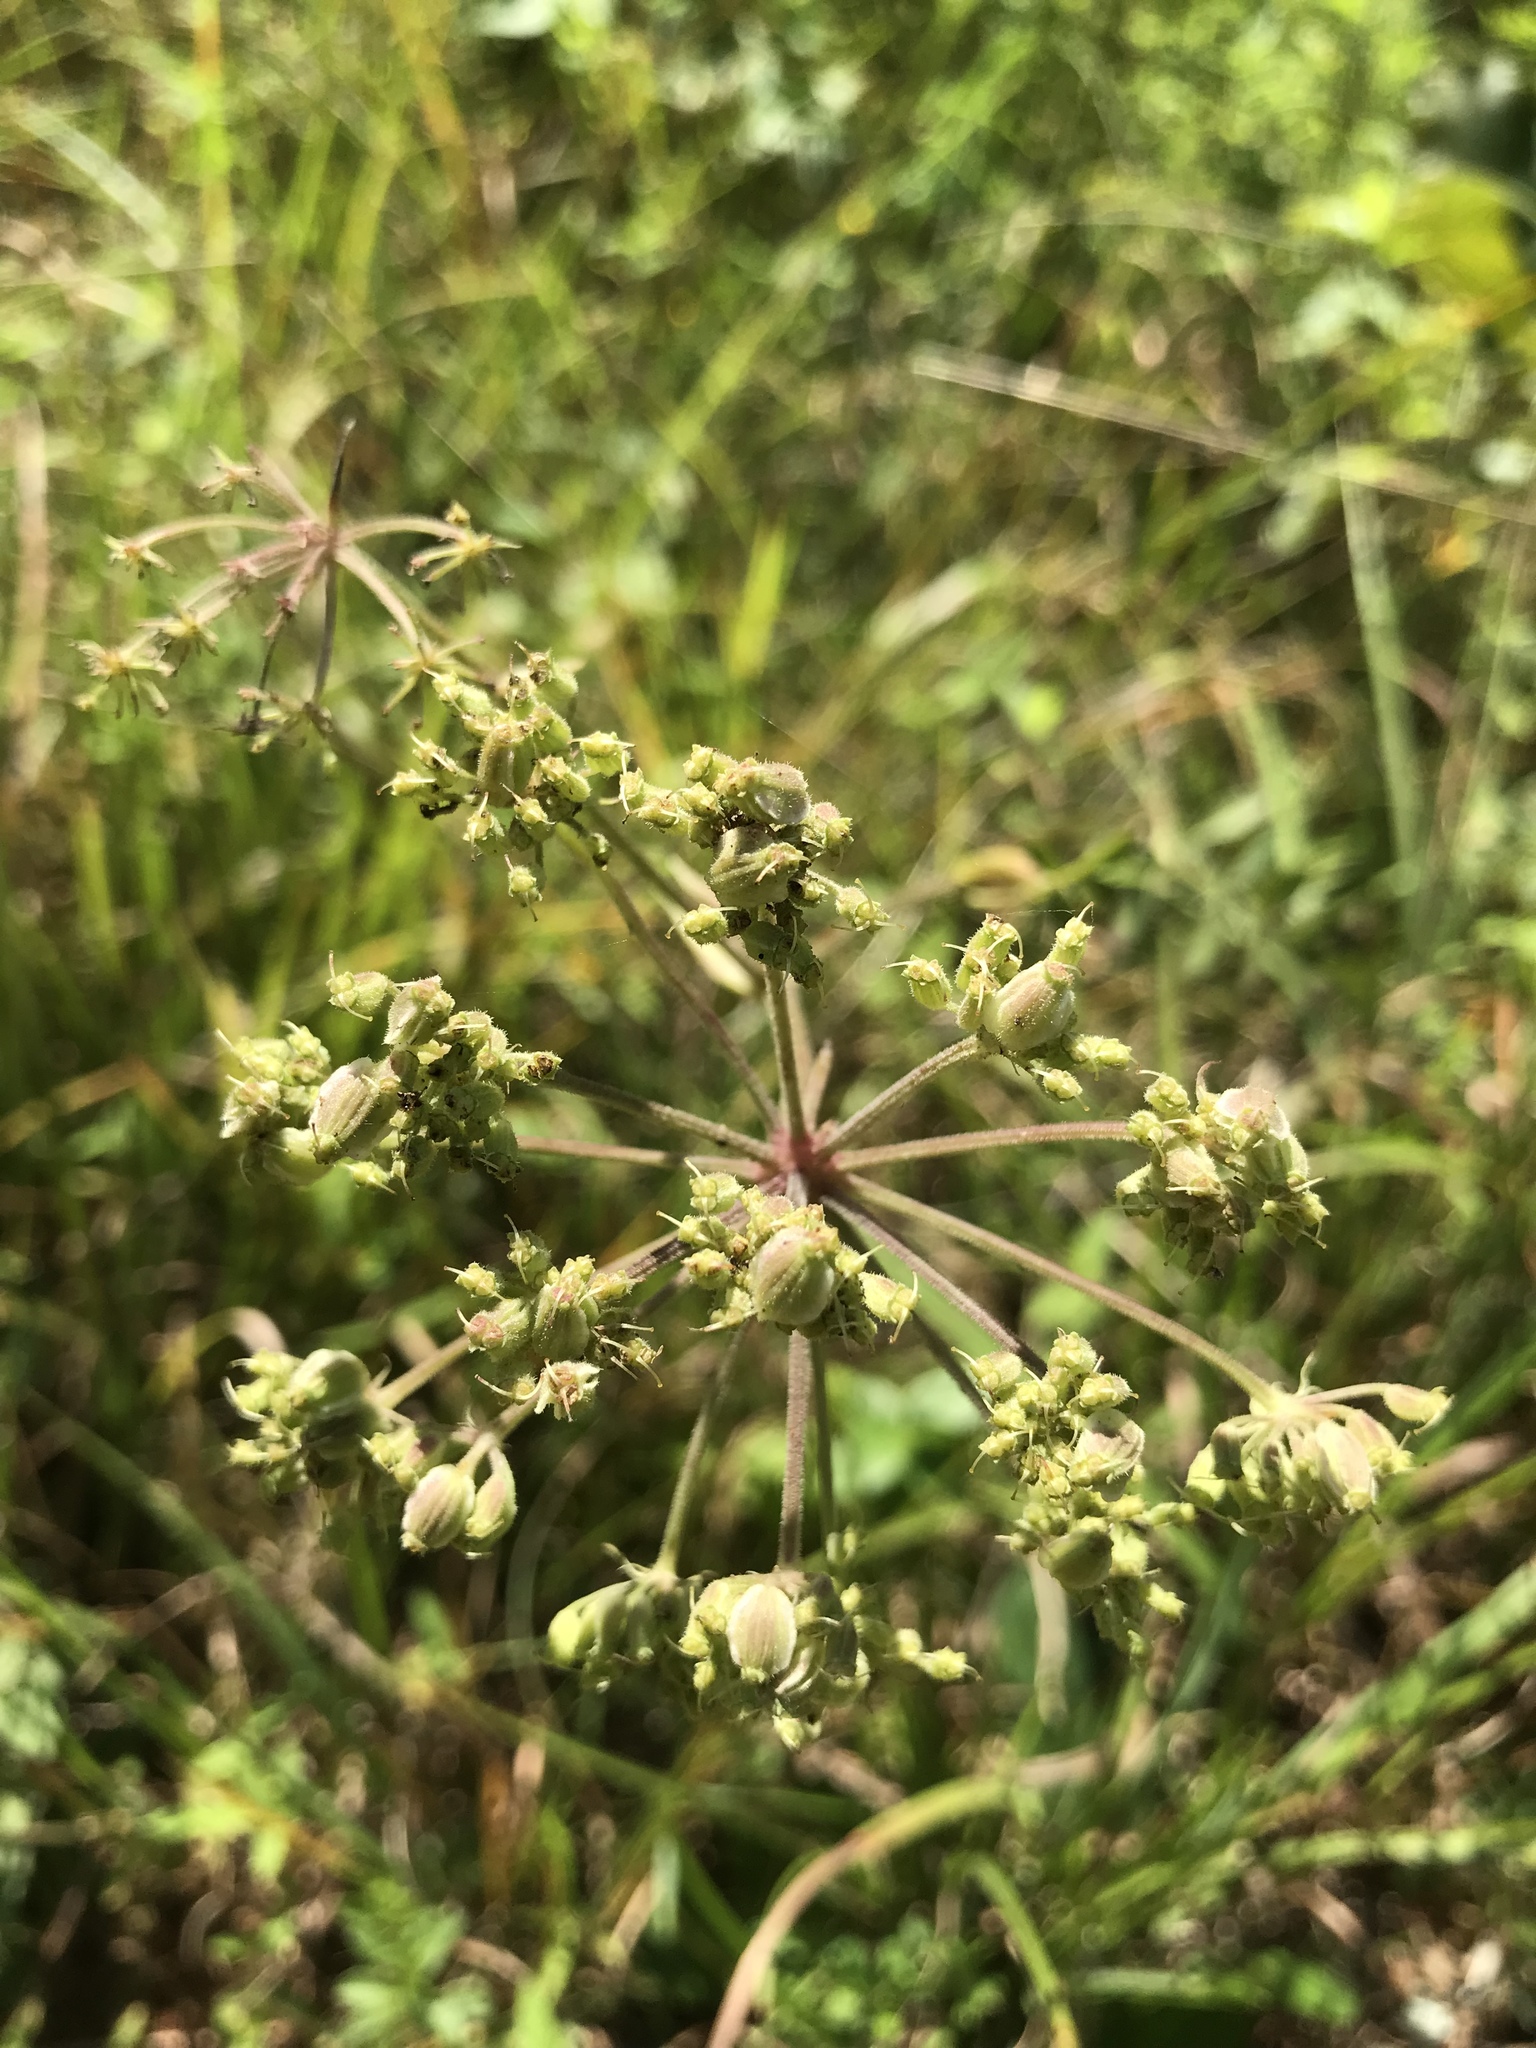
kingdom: Plantae
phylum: Tracheophyta
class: Magnoliopsida
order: Apiales
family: Apiaceae
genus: Angelica
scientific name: Angelica venenosa
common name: Hairy angelica
